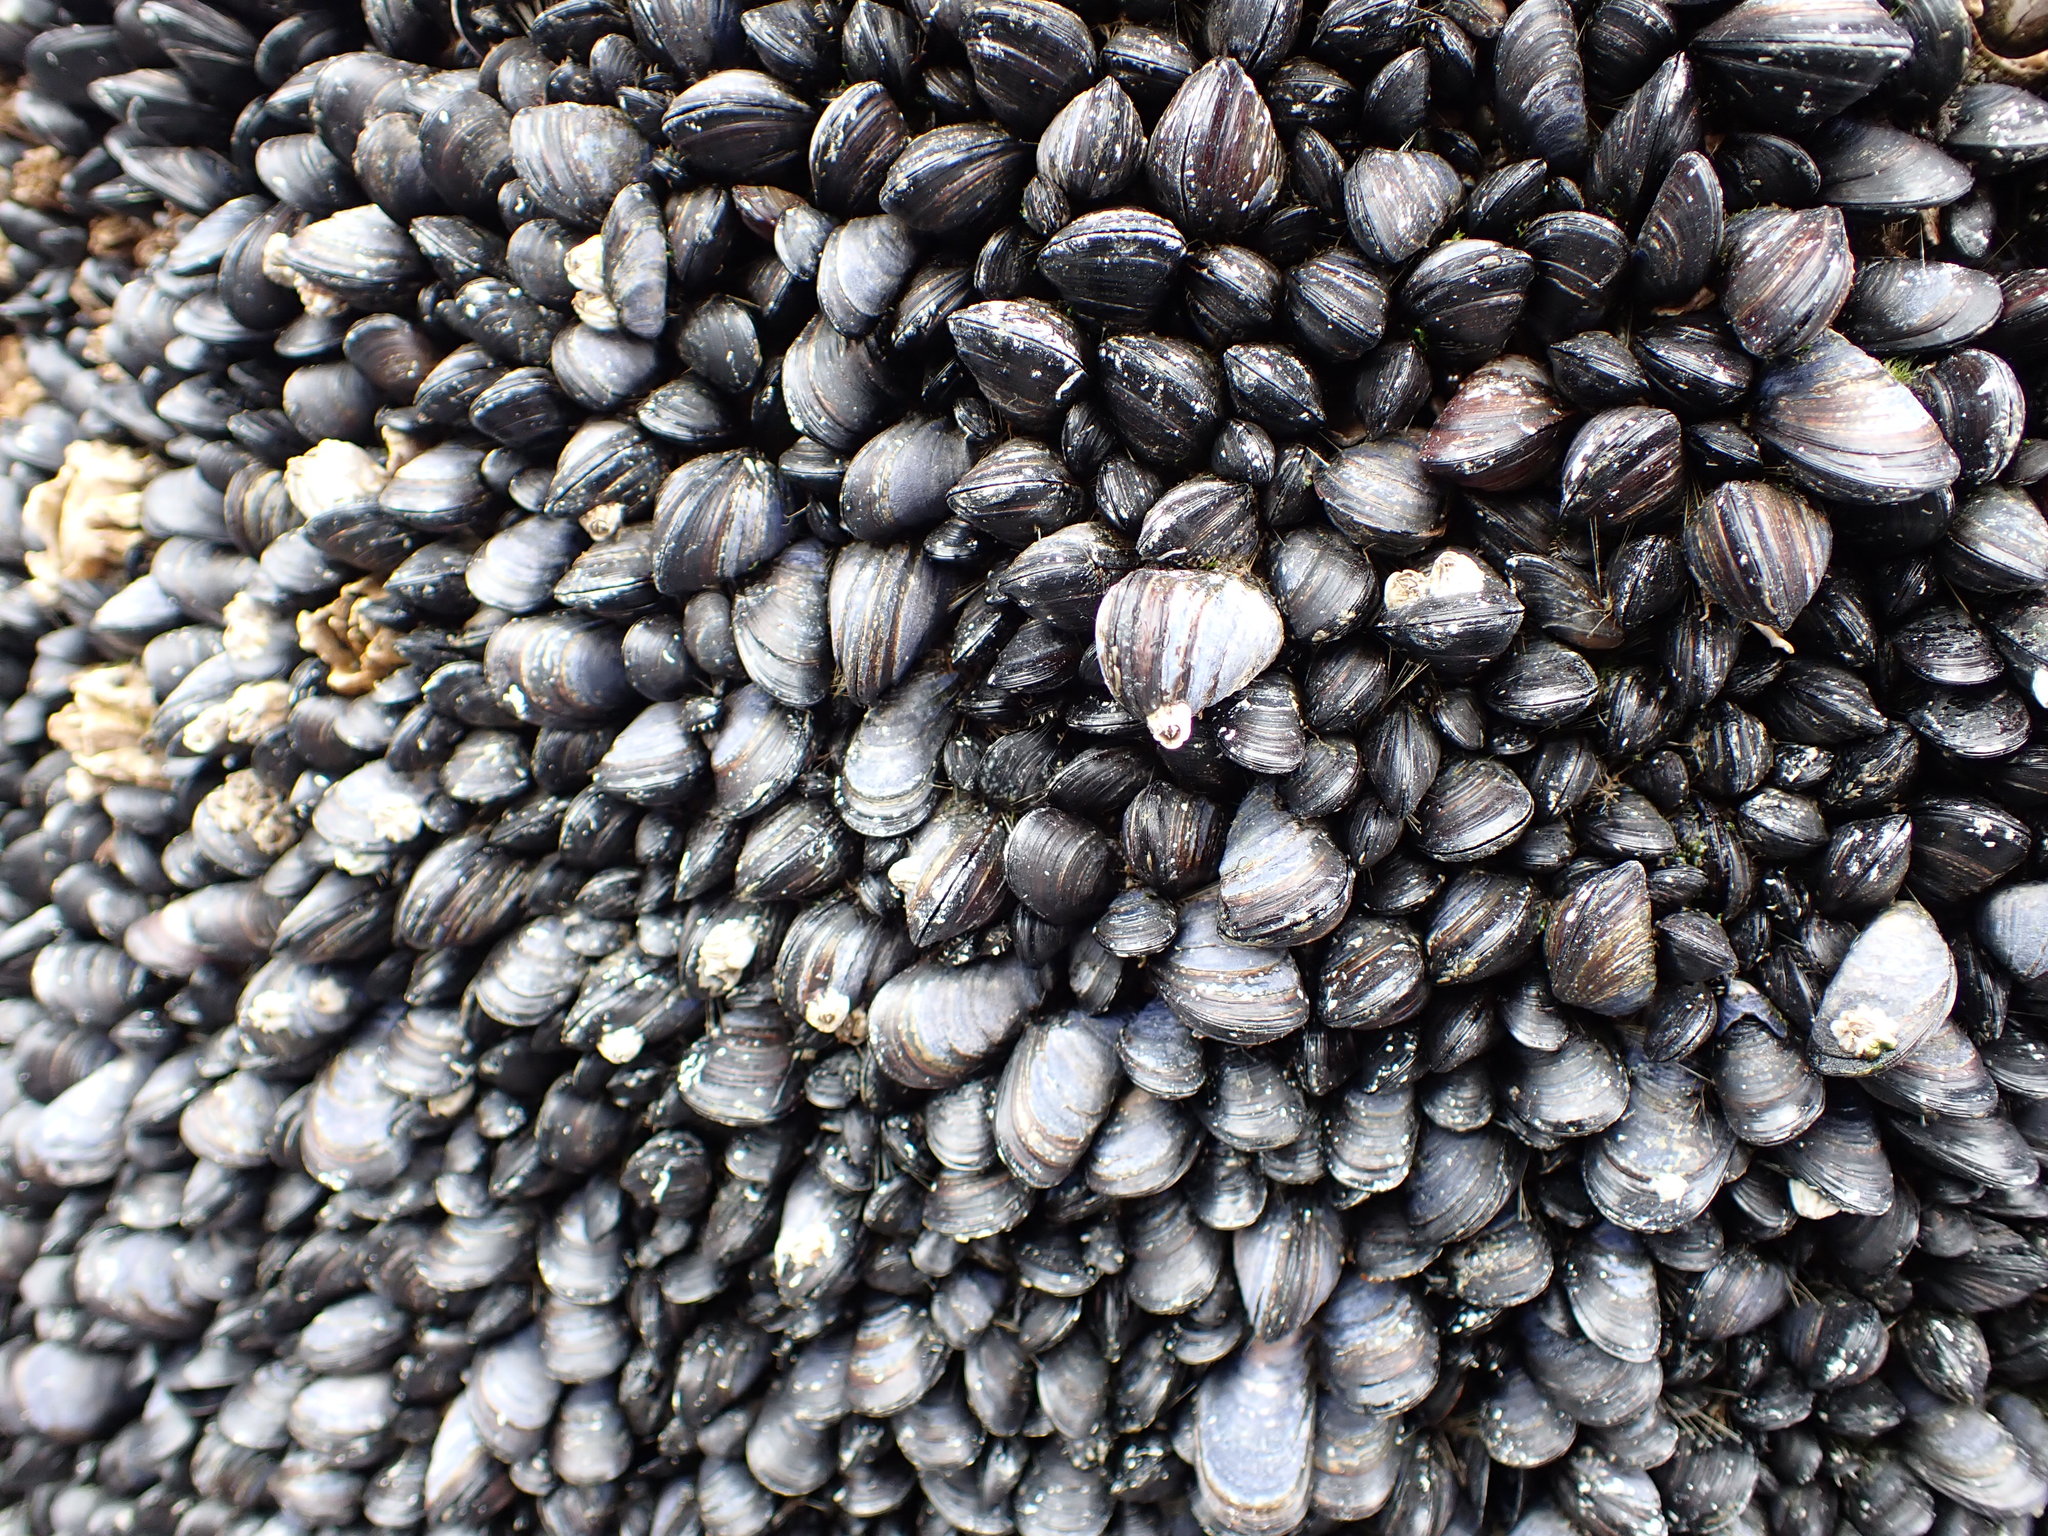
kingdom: Animalia
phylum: Mollusca
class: Bivalvia
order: Mytilida
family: Mytilidae
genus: Mytilus
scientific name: Mytilus trossulus
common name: Northern blue mussel
